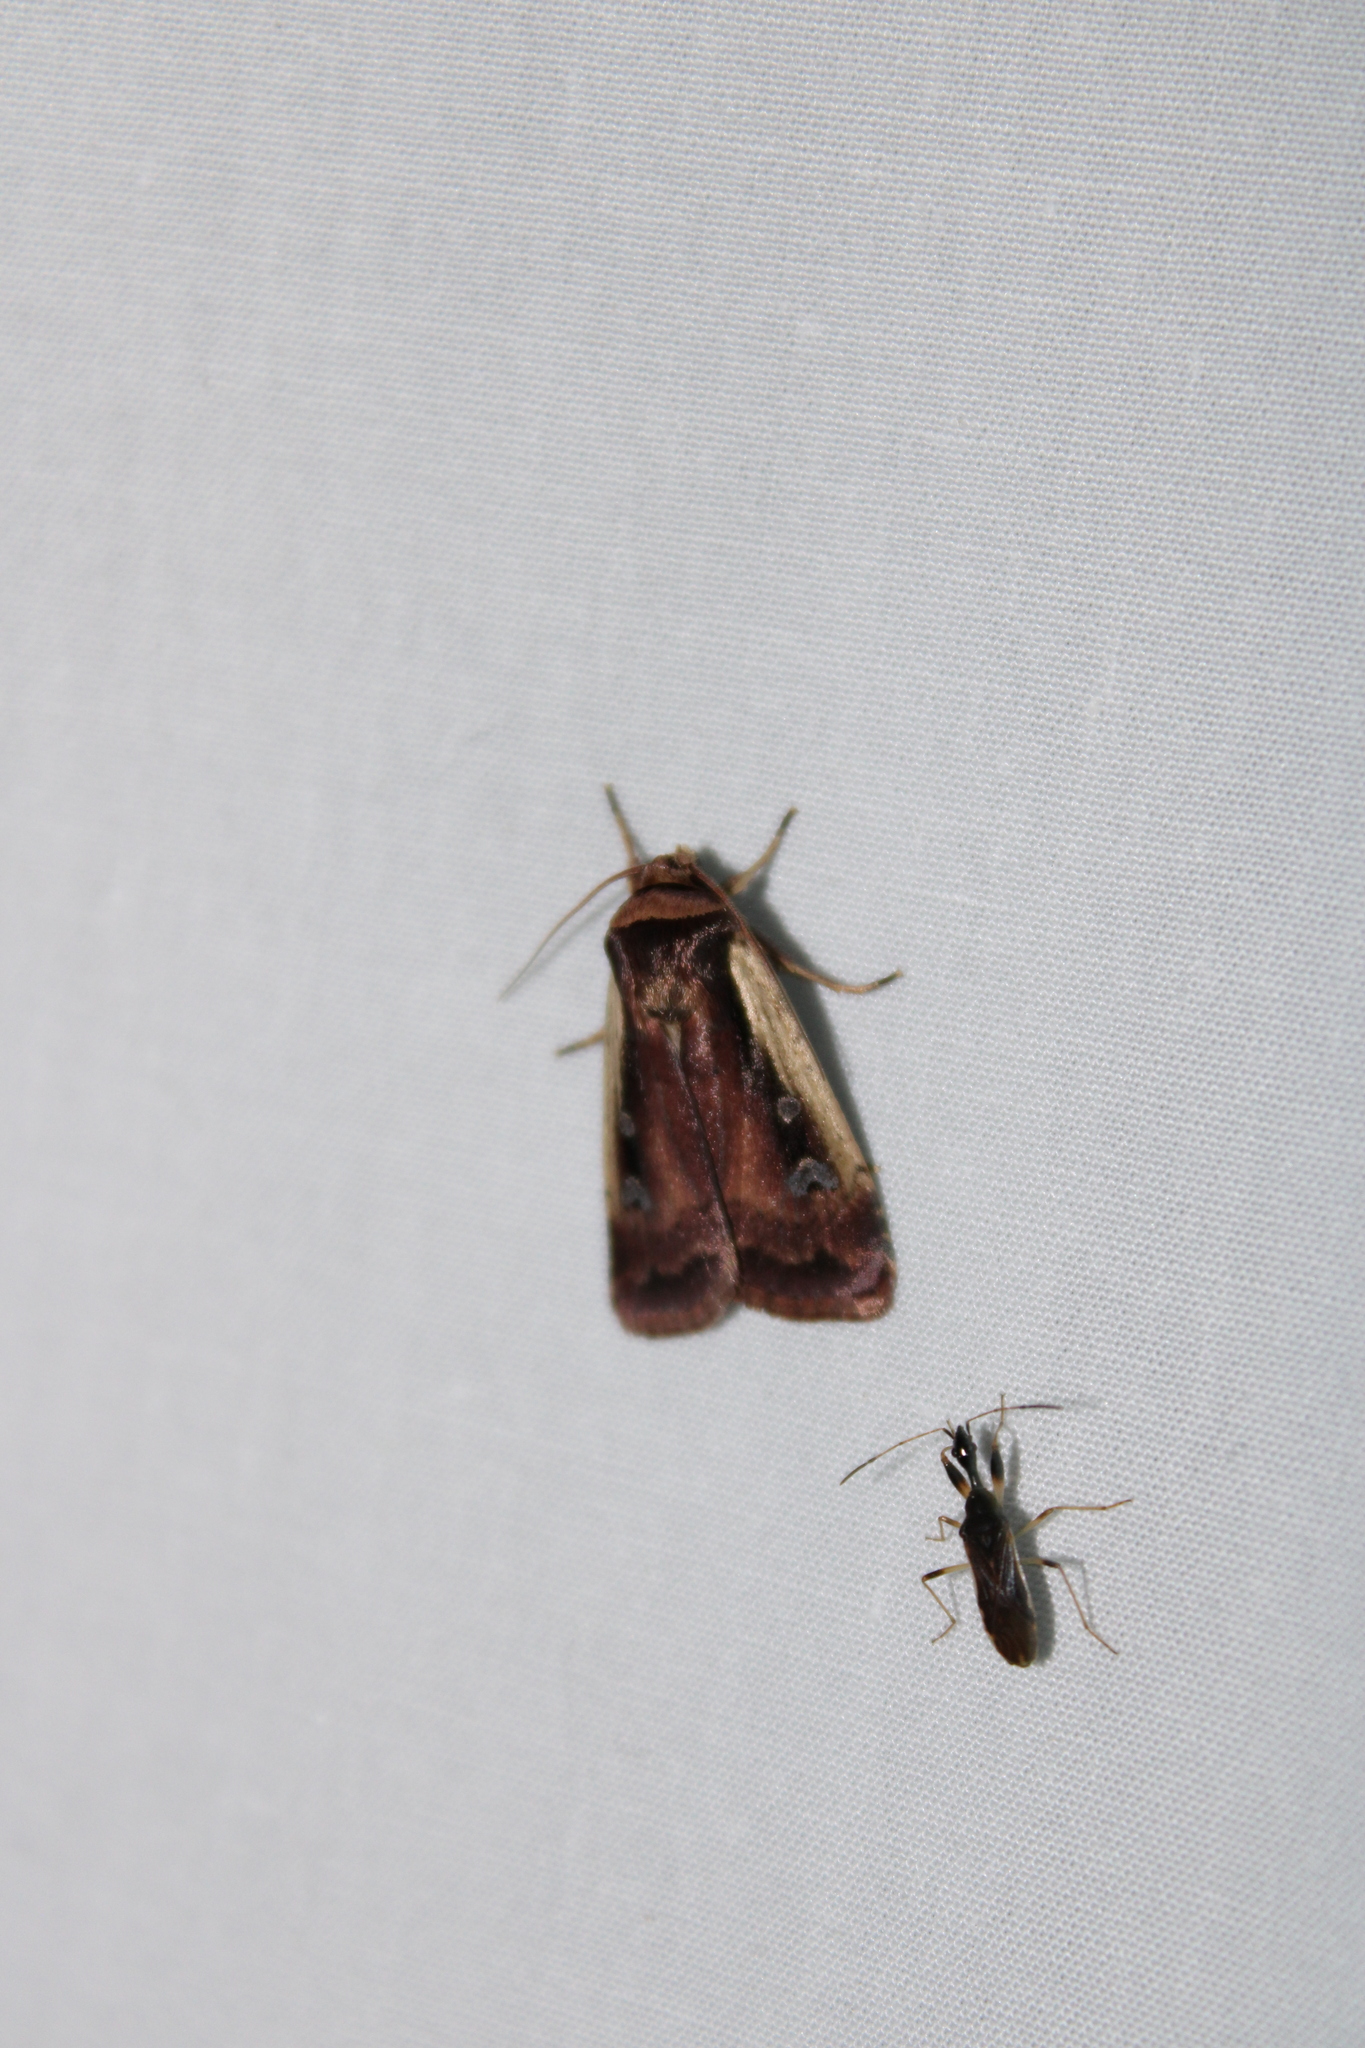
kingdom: Animalia
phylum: Arthropoda
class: Insecta
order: Lepidoptera
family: Noctuidae
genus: Ochropleura
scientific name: Ochropleura implecta
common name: Flame-shouldered dart
